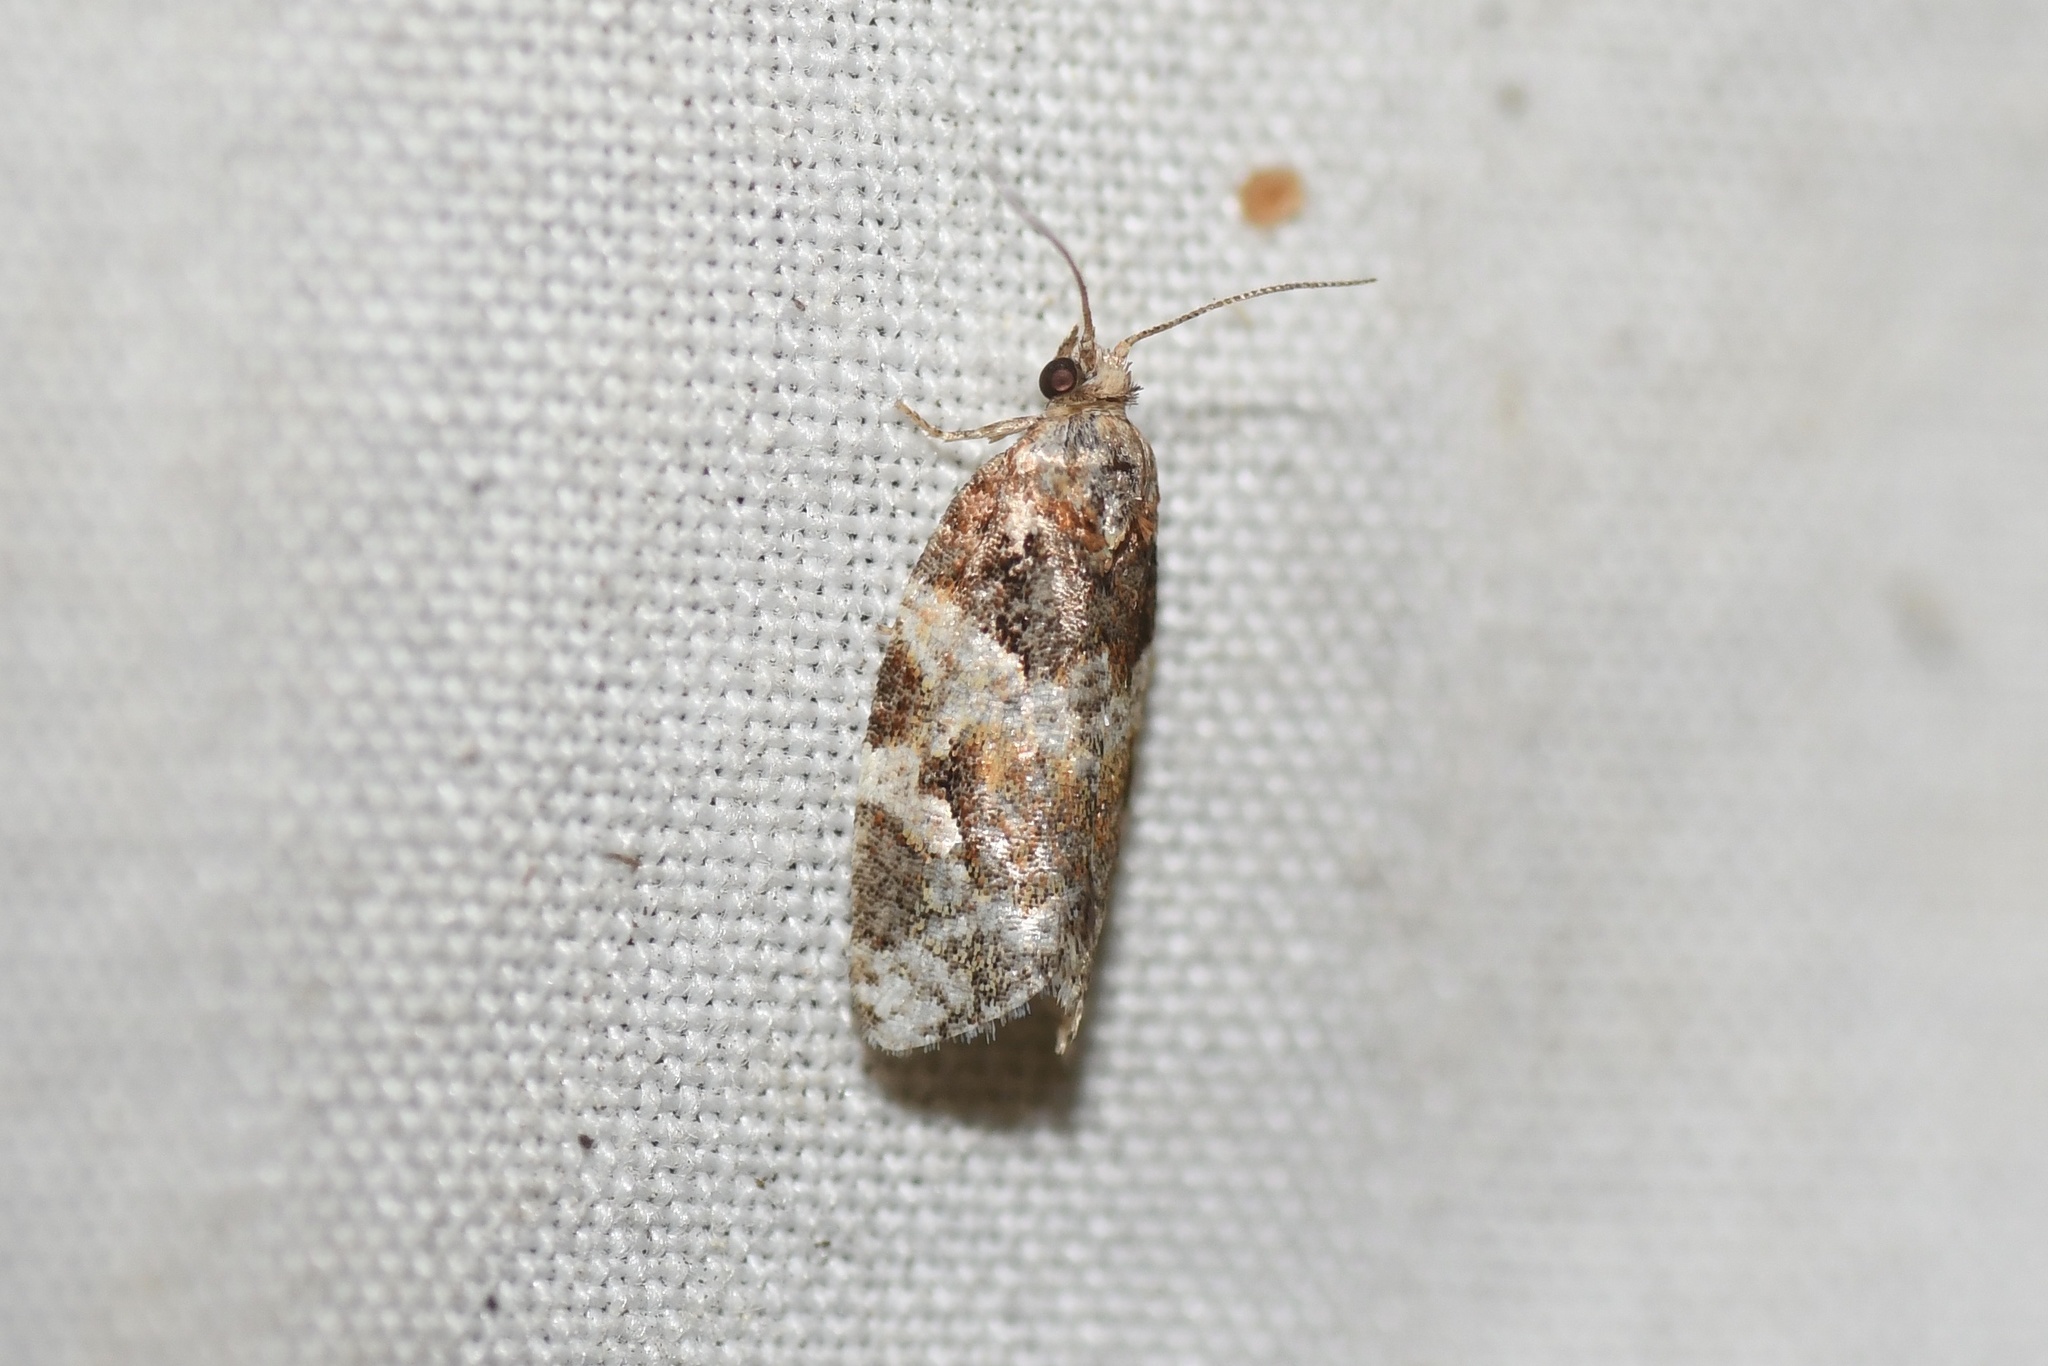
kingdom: Animalia
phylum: Arthropoda
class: Insecta
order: Lepidoptera
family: Tortricidae
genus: Argyrotaenia
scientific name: Argyrotaenia velutinana
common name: Red-banded leafroller moth
